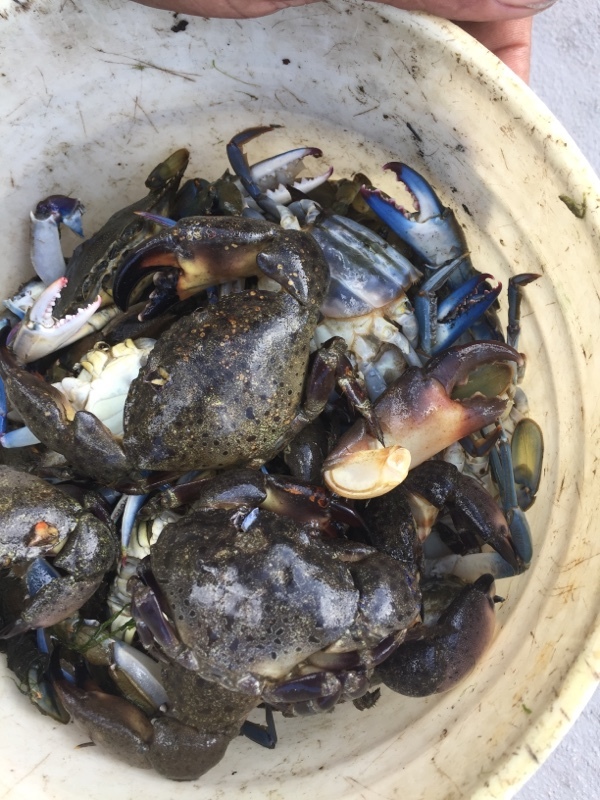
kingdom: Animalia
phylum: Arthropoda
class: Malacostraca
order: Decapoda
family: Menippidae
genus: Menippe
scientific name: Menippe mercenaria
